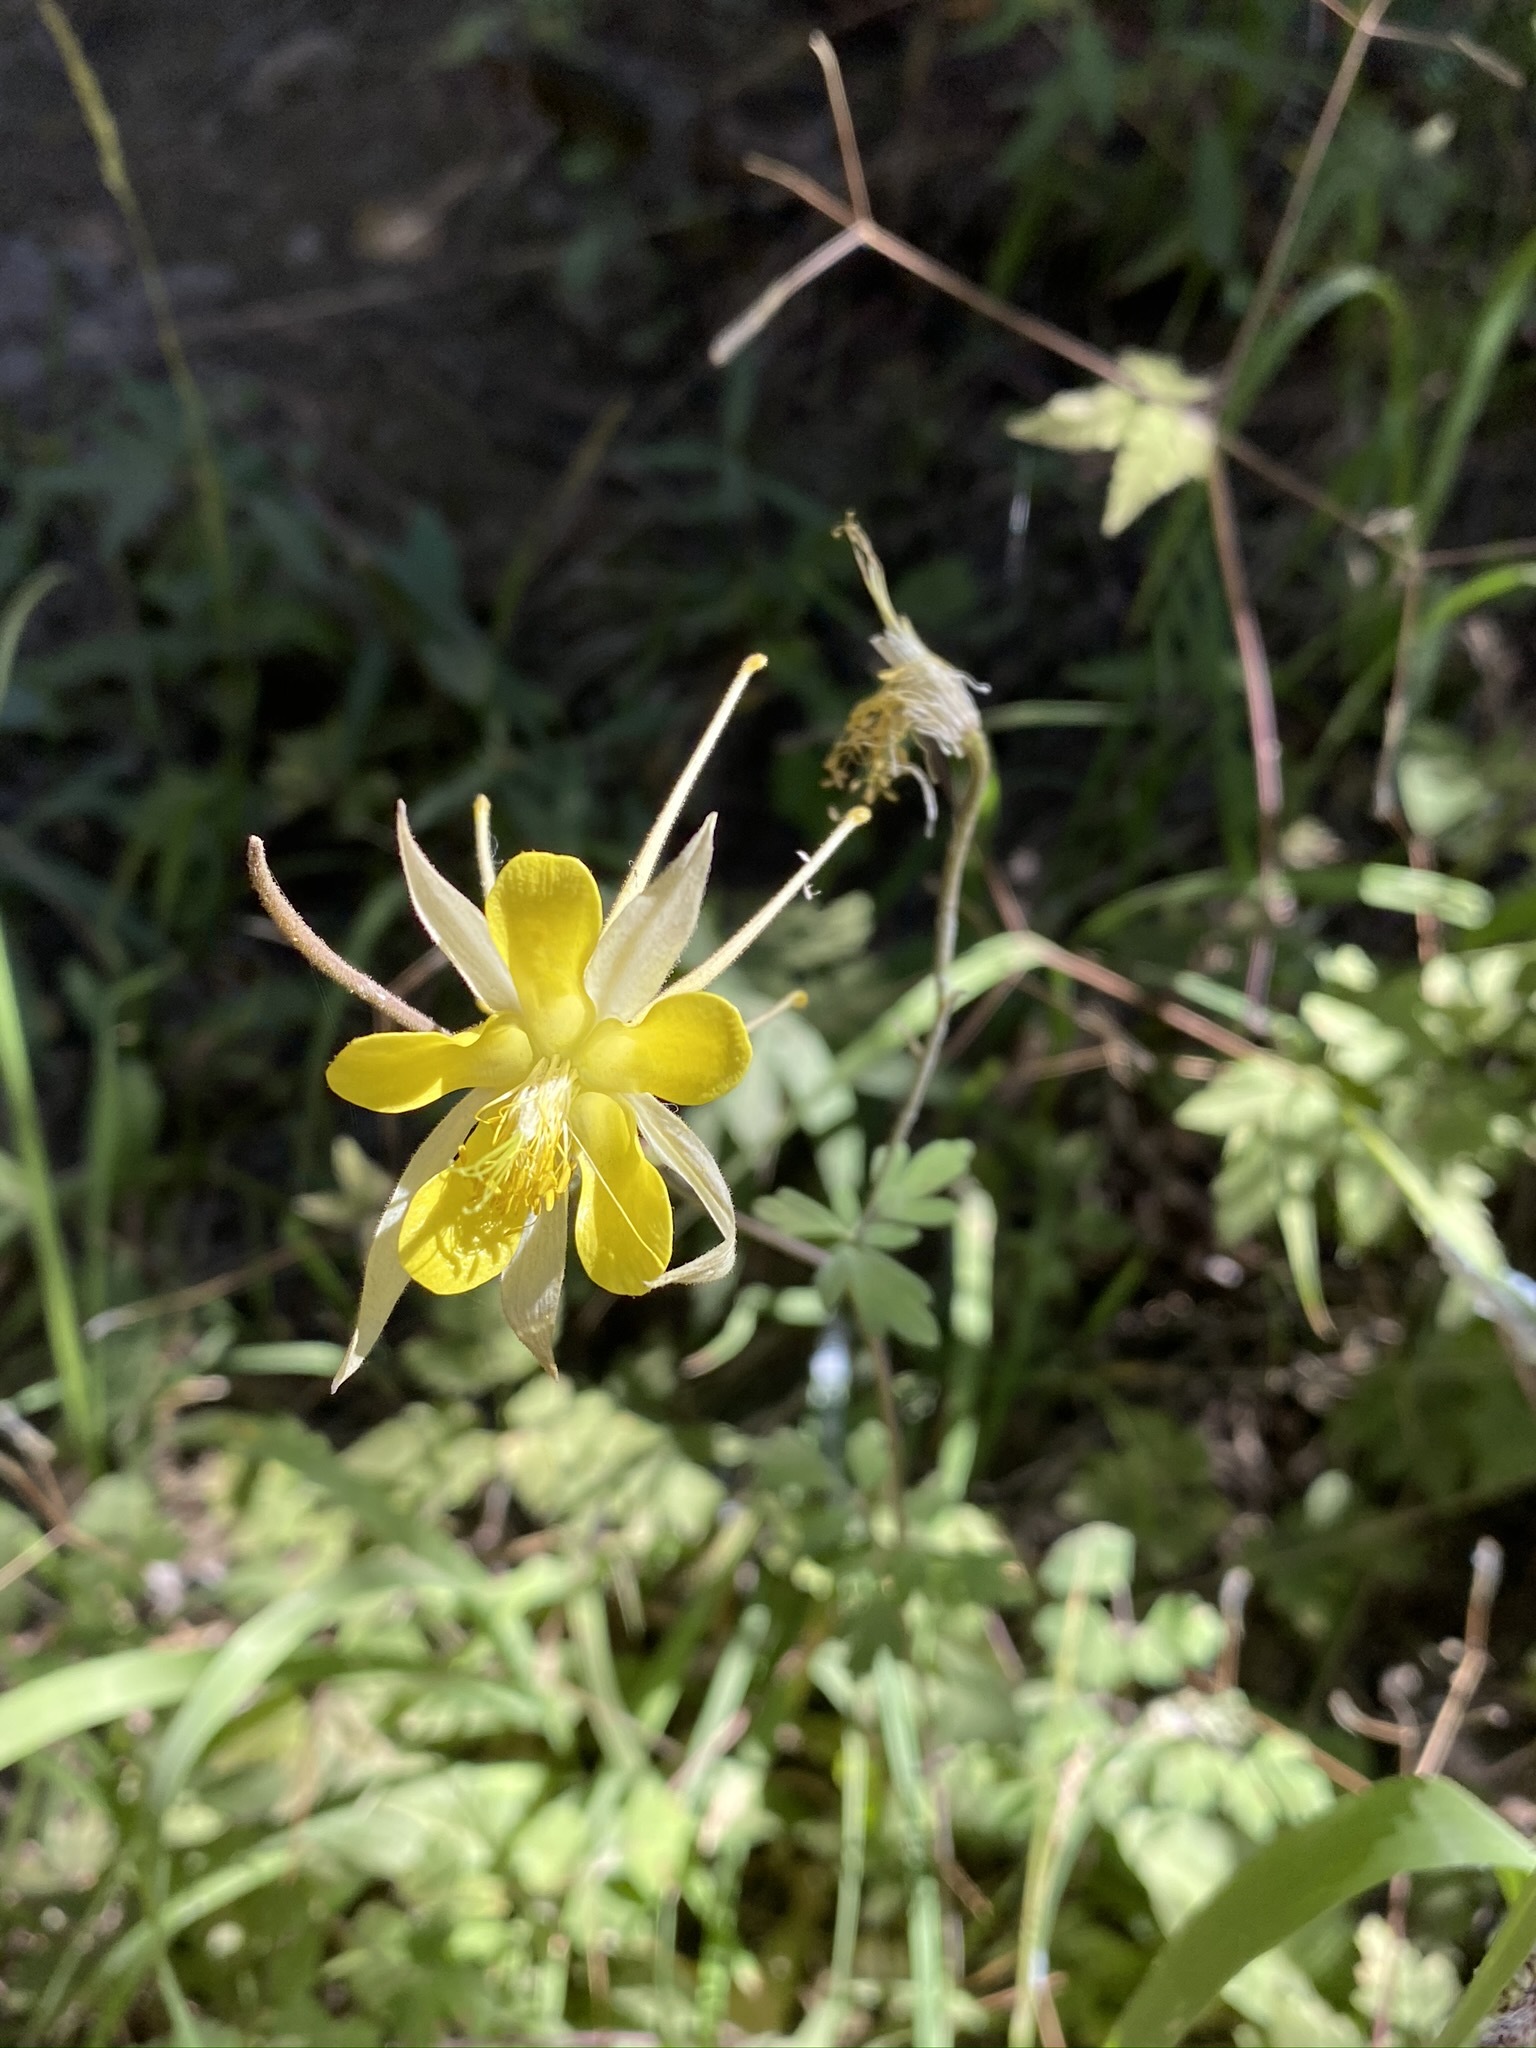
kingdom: Plantae
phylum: Tracheophyta
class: Magnoliopsida
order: Ranunculales
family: Ranunculaceae
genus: Aquilegia
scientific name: Aquilegia chrysantha
